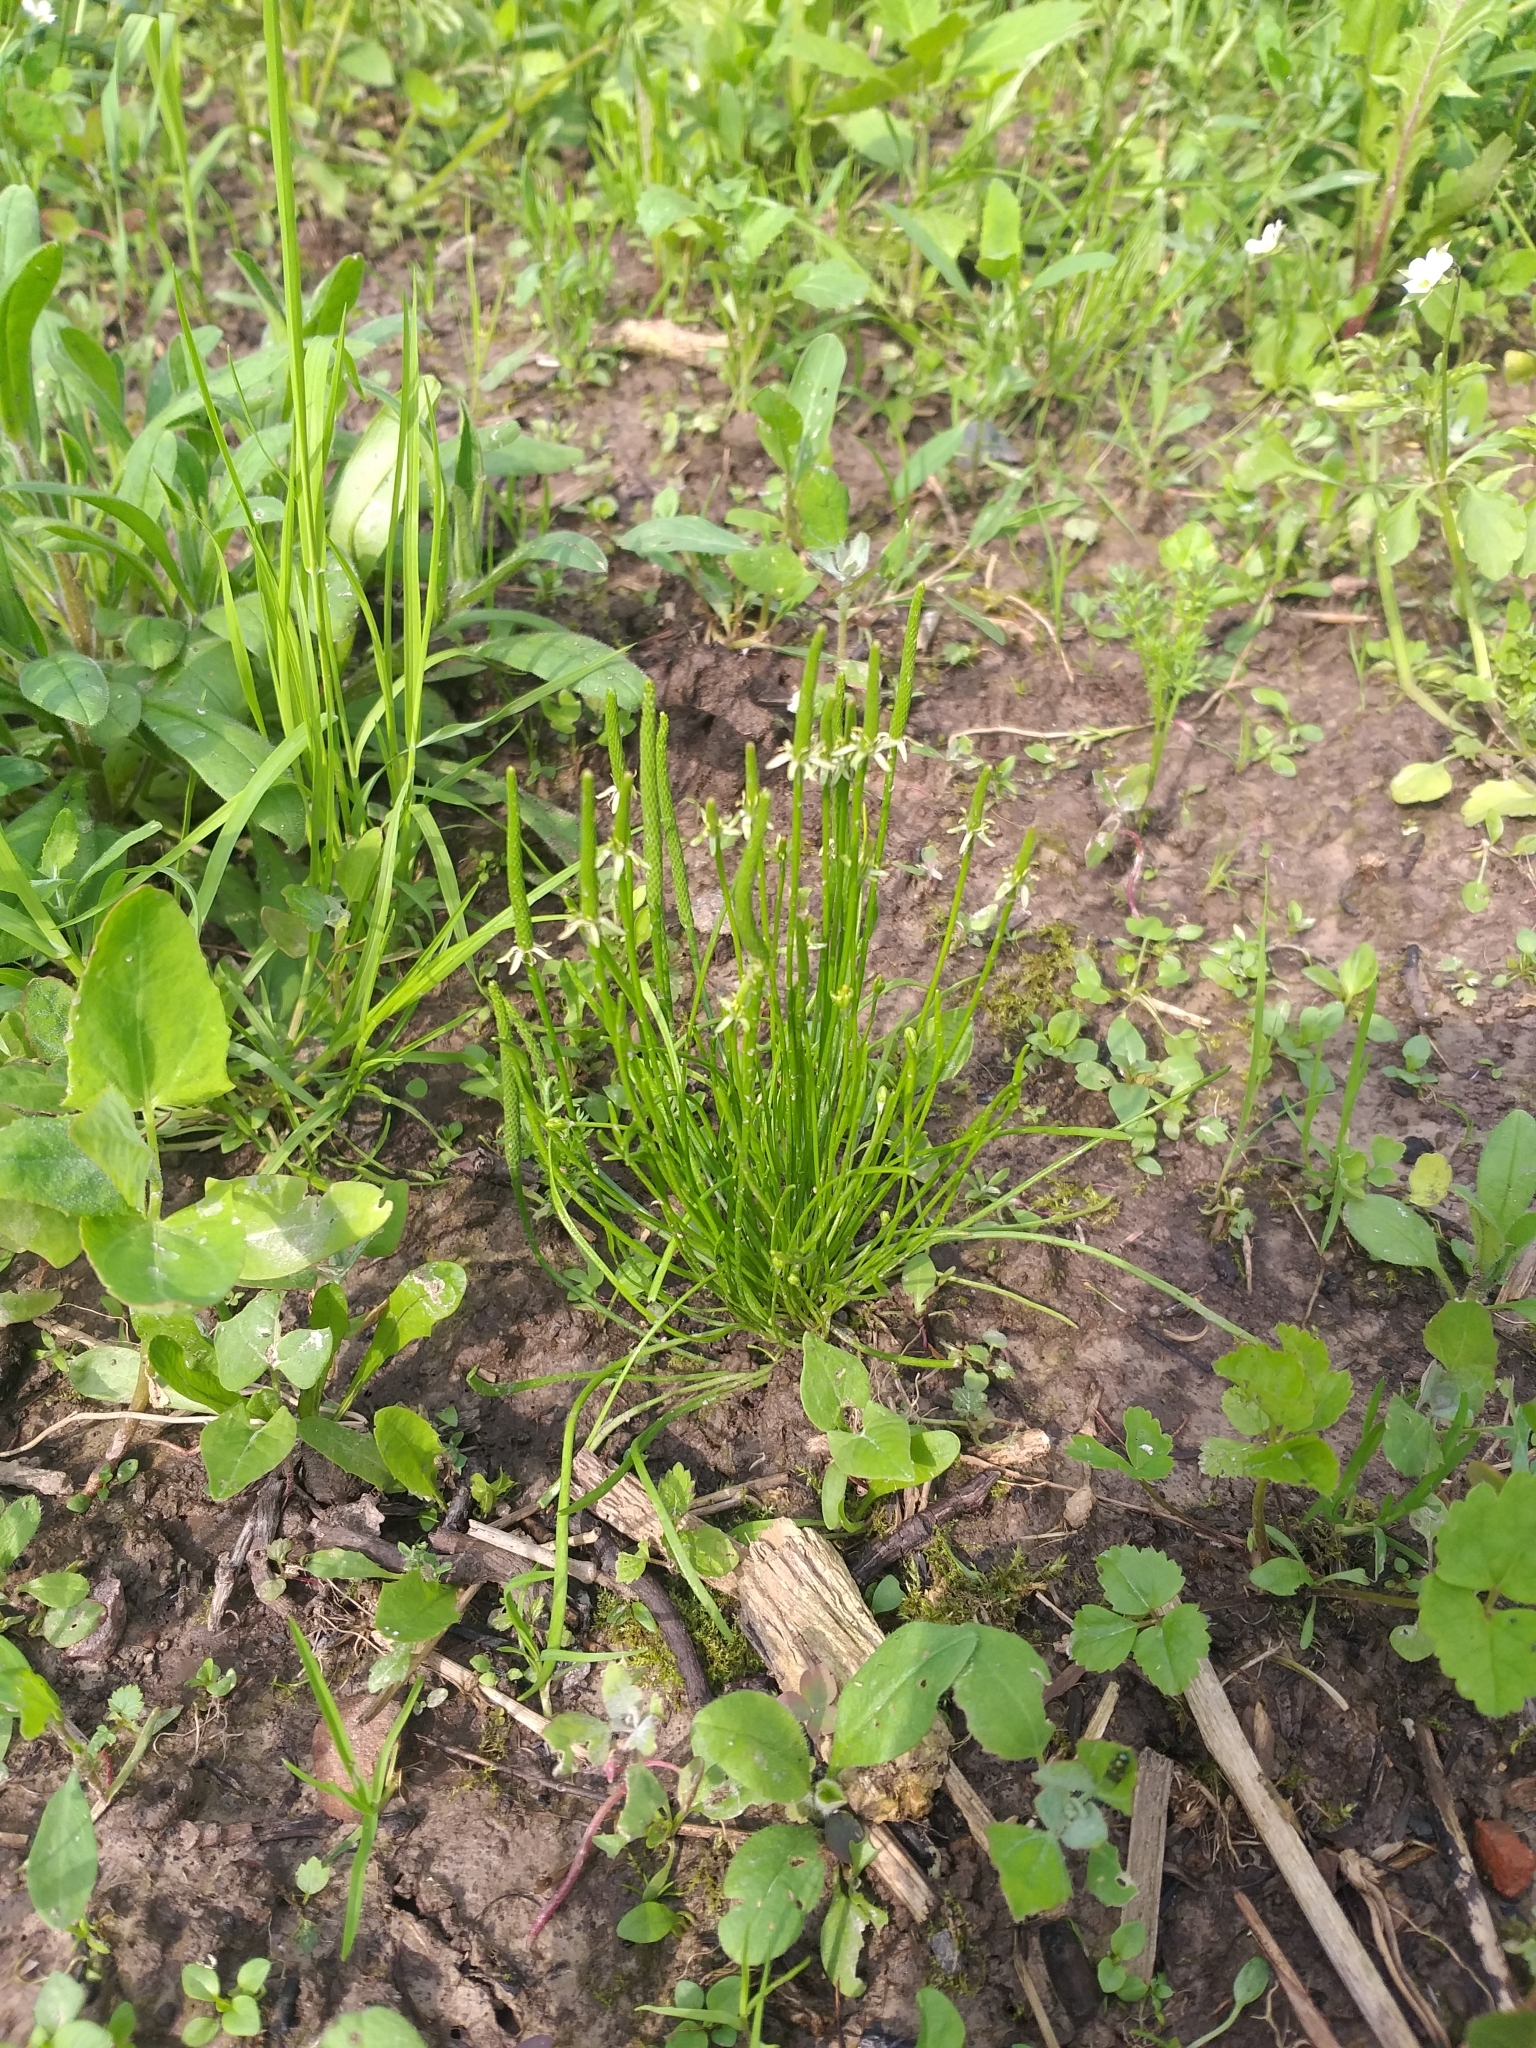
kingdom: Plantae
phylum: Tracheophyta
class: Magnoliopsida
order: Ranunculales
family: Ranunculaceae
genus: Myosurus
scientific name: Myosurus minimus
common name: Mousetail
